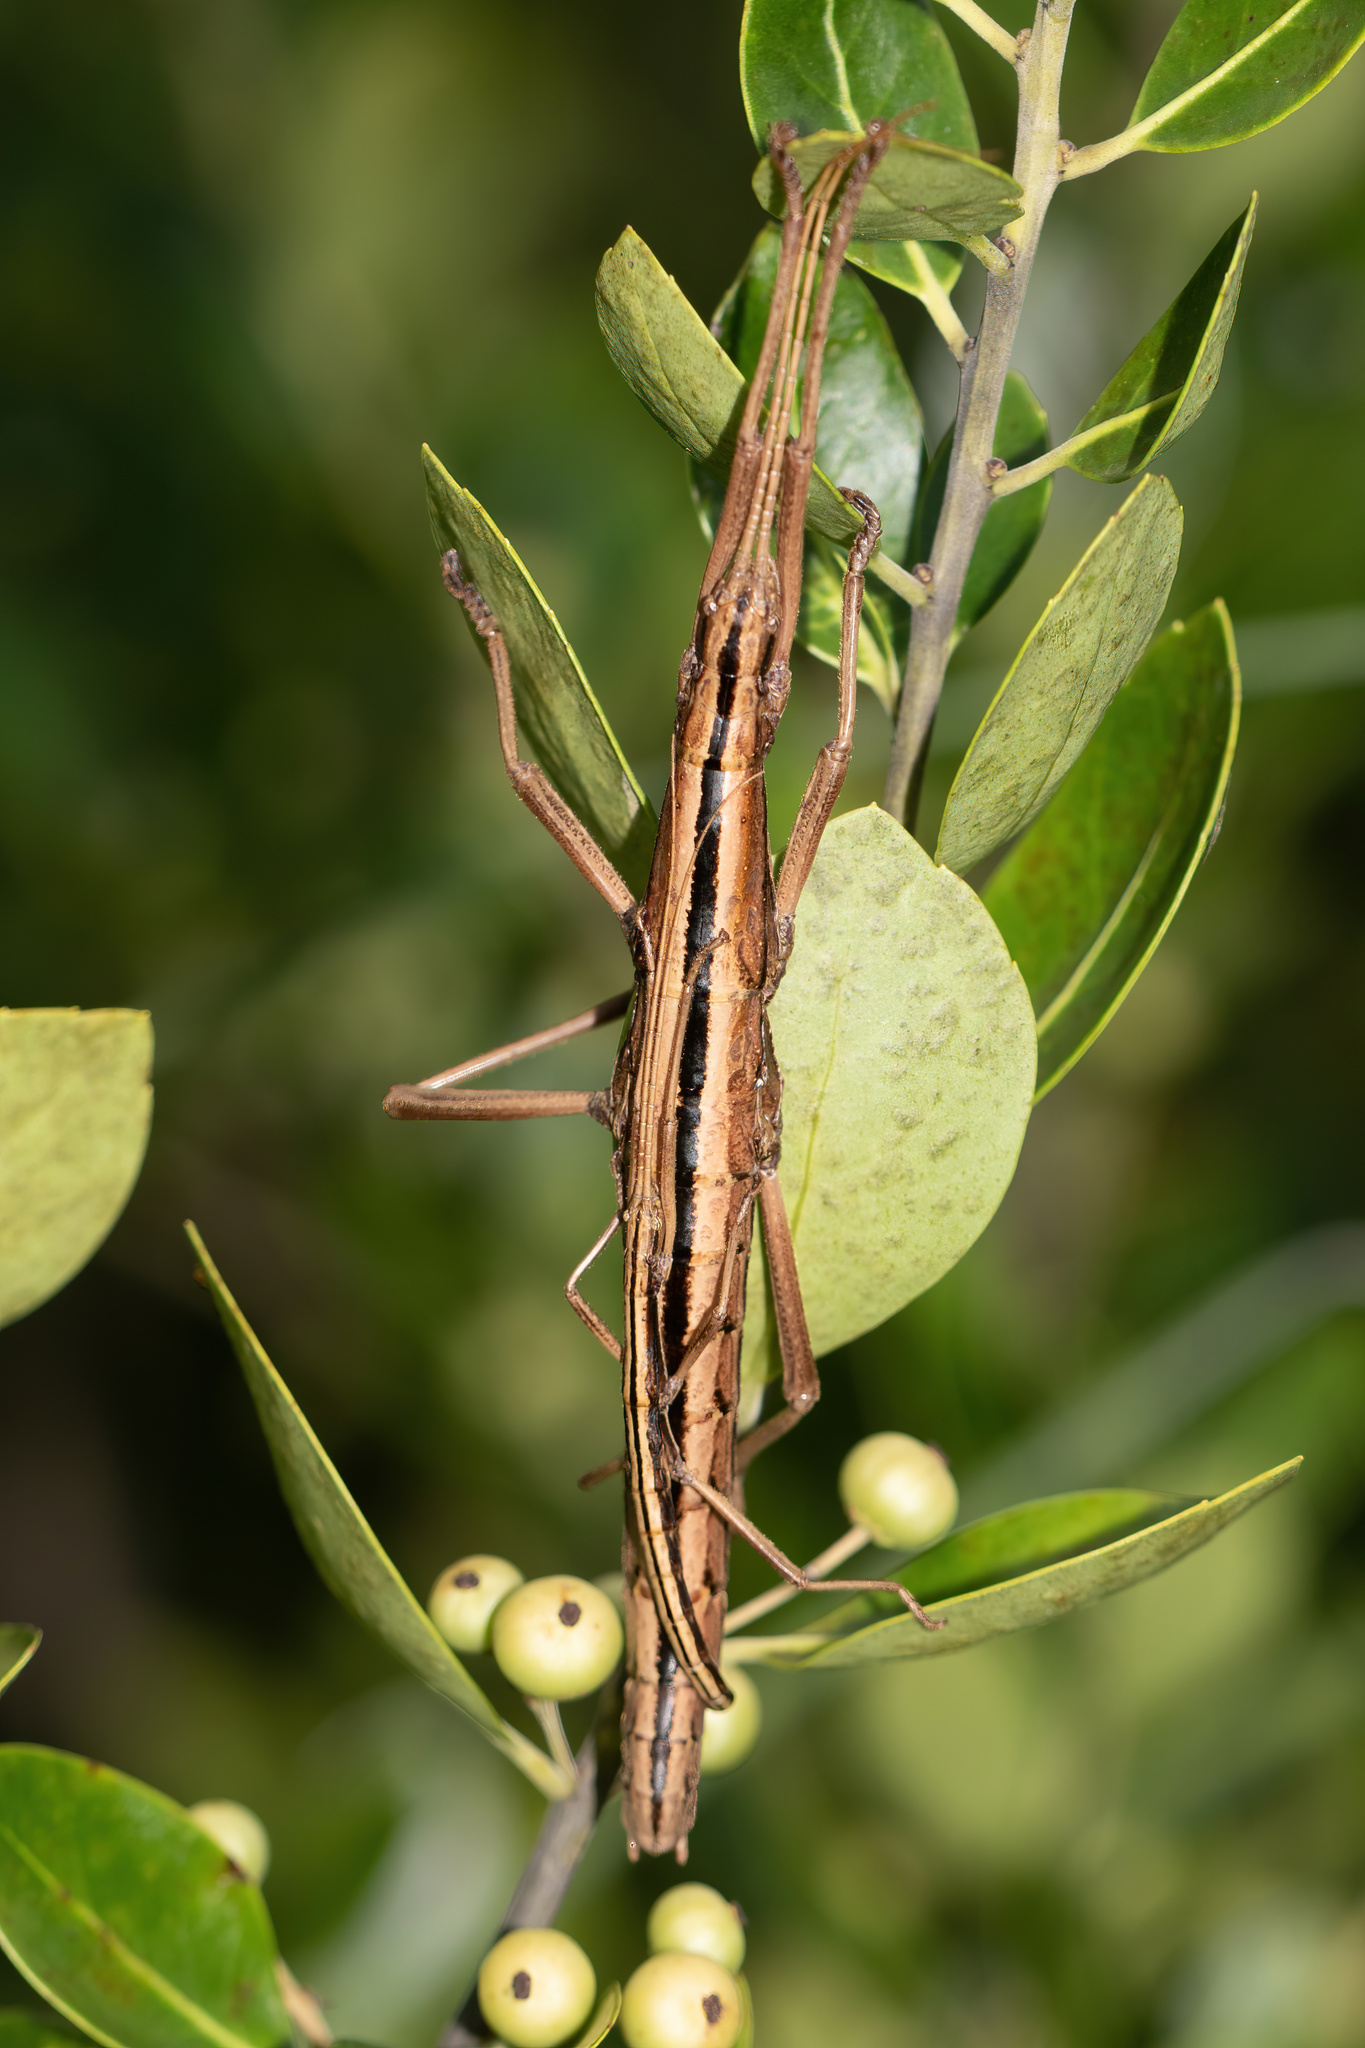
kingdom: Animalia
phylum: Arthropoda
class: Insecta
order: Phasmida
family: Pseudophasmatidae
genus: Anisomorpha
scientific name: Anisomorpha buprestoides
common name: Florida stick insect
